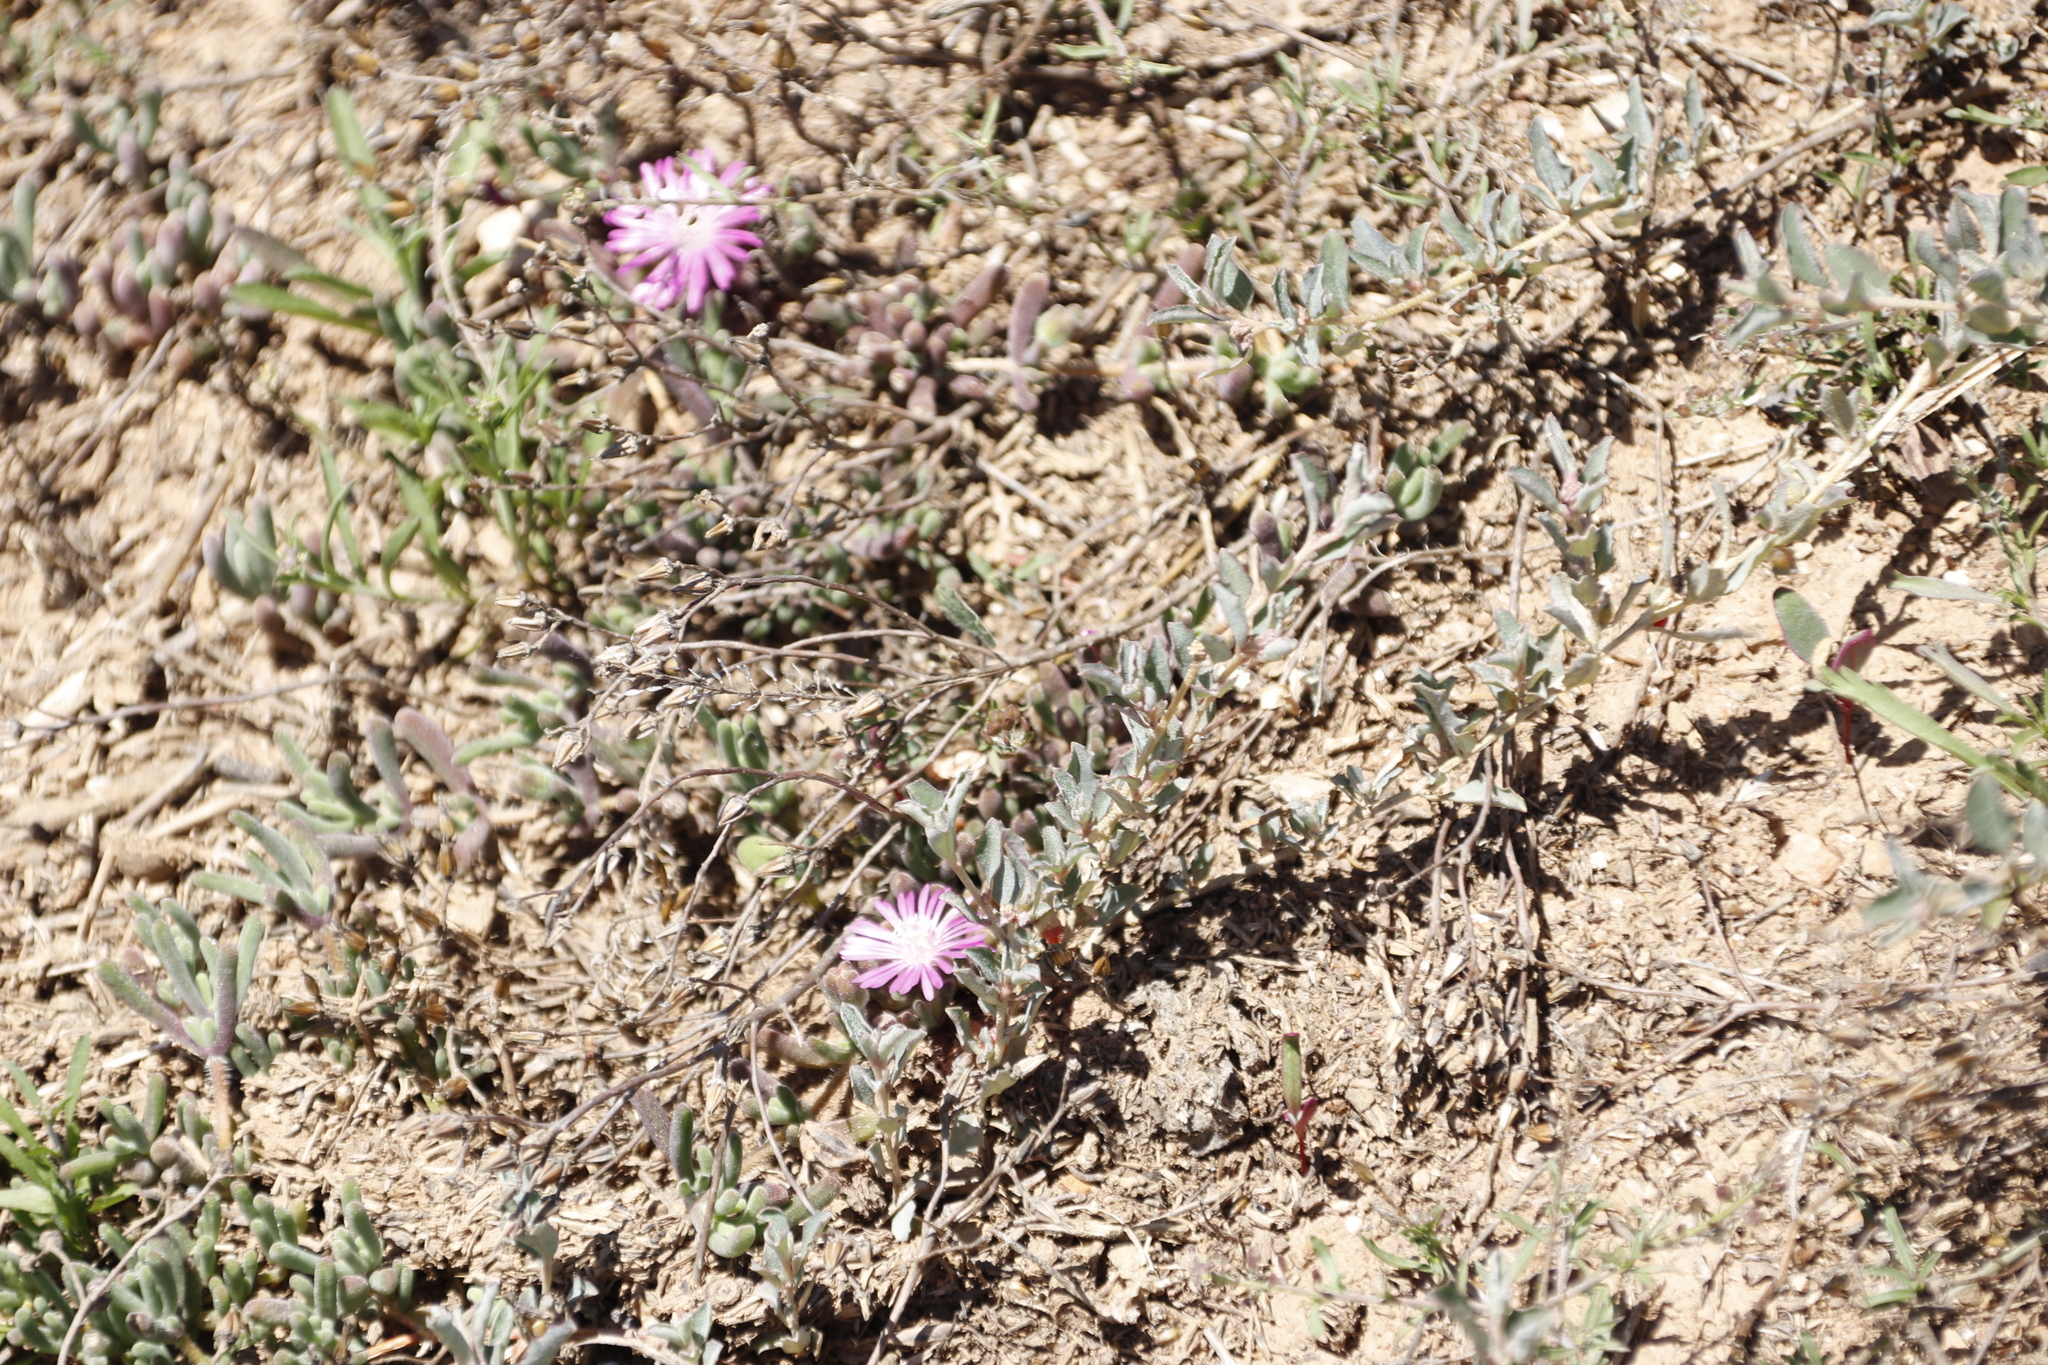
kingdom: Plantae
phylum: Tracheophyta
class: Magnoliopsida
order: Caryophyllales
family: Aizoaceae
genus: Drosanthemum
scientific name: Drosanthemum hispidum
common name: Hairy dewflower
